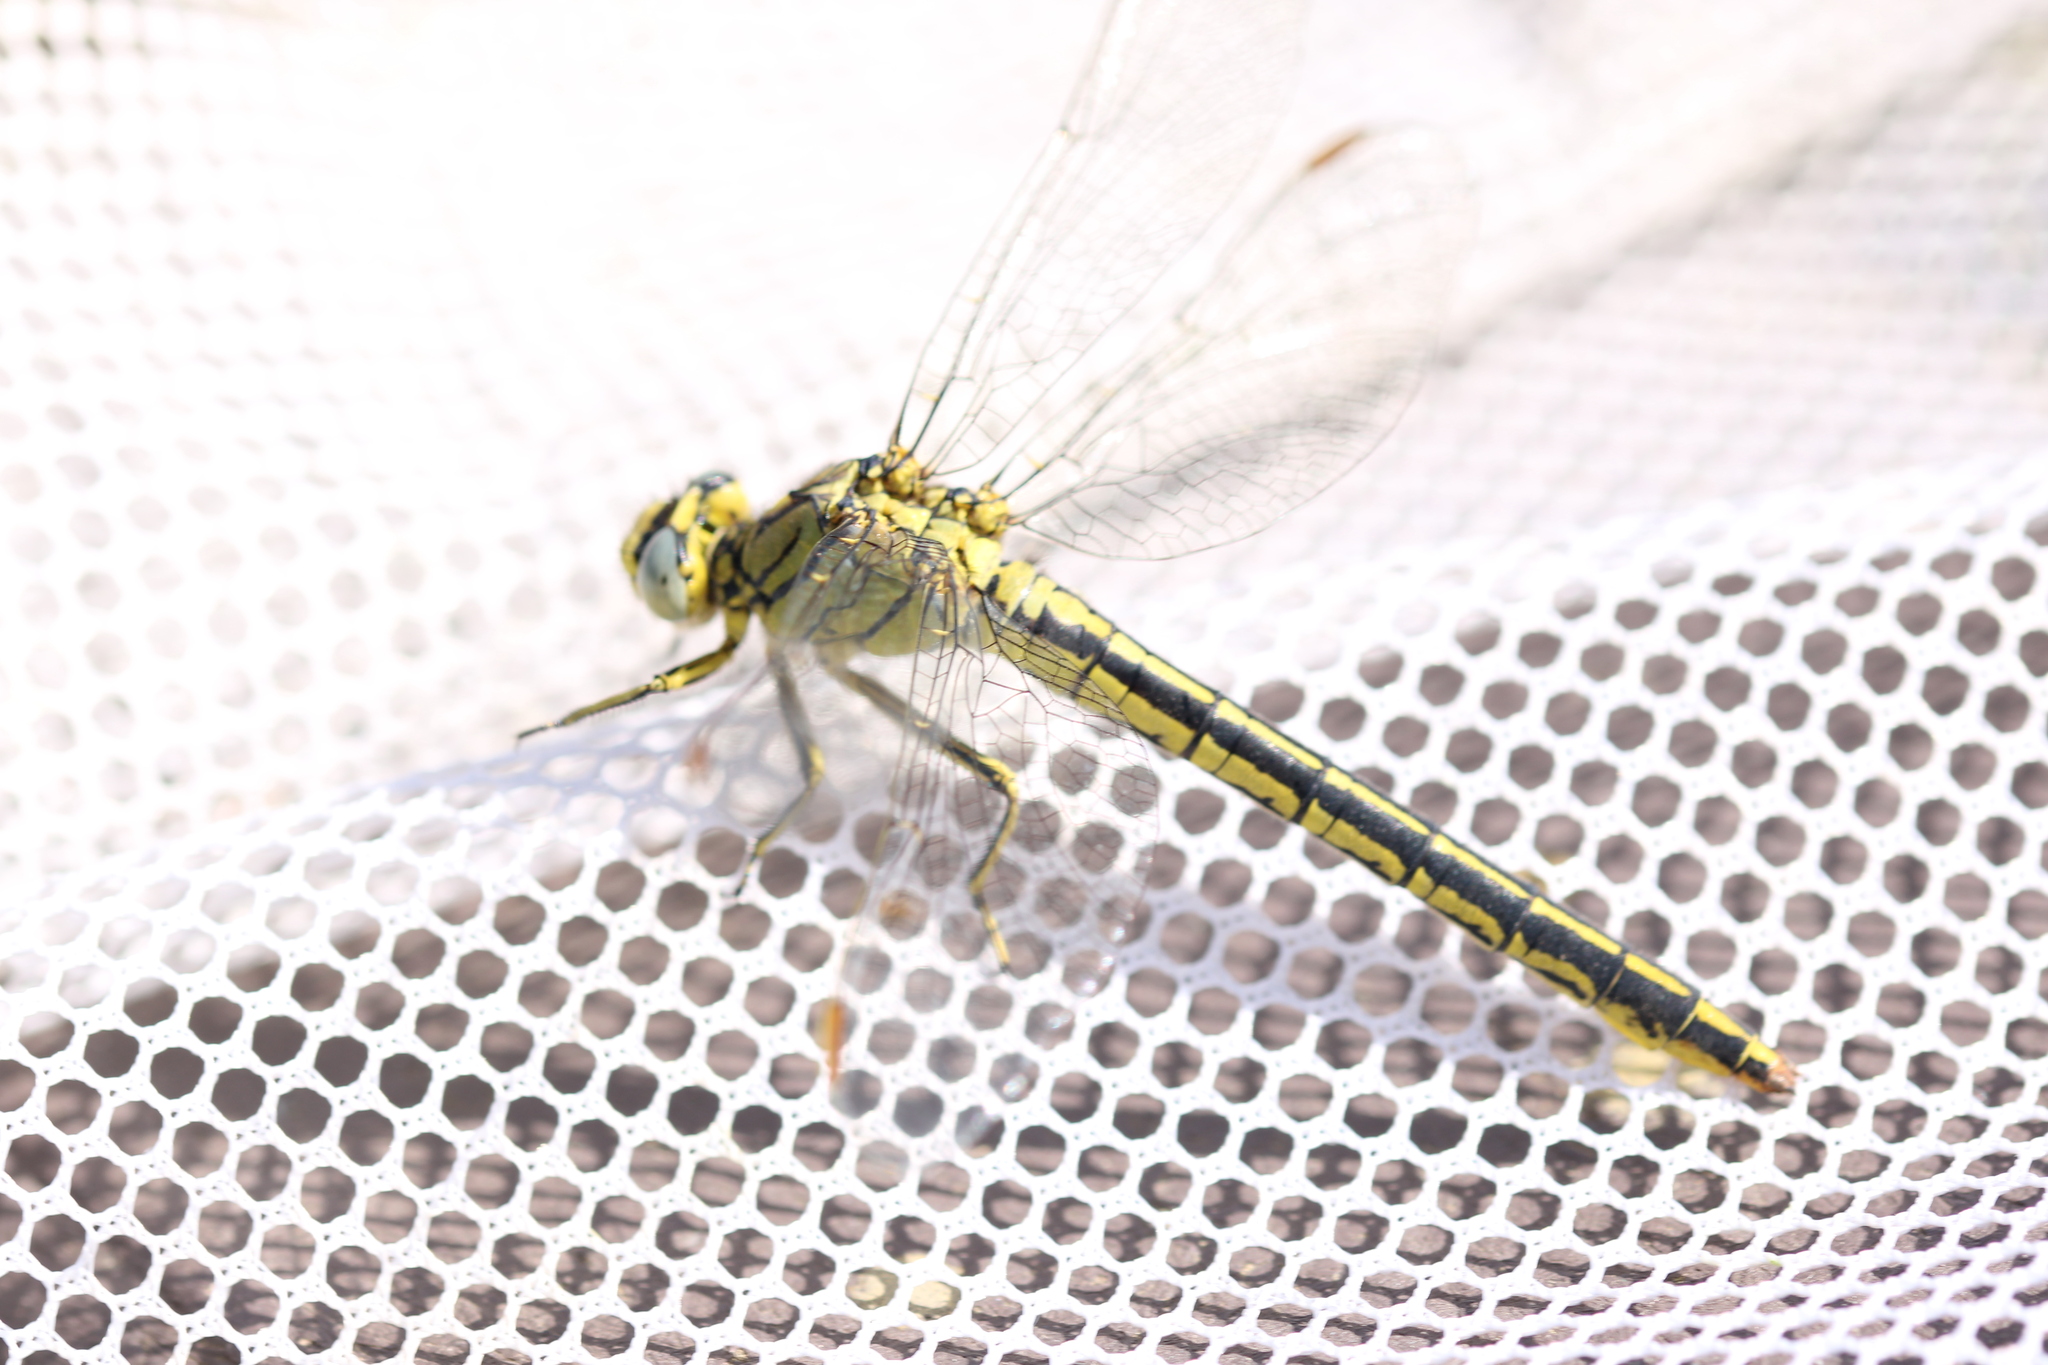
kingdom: Animalia
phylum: Arthropoda
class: Insecta
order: Odonata
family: Gomphidae
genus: Gomphus
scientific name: Gomphus pulchellus
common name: Western clubtail
